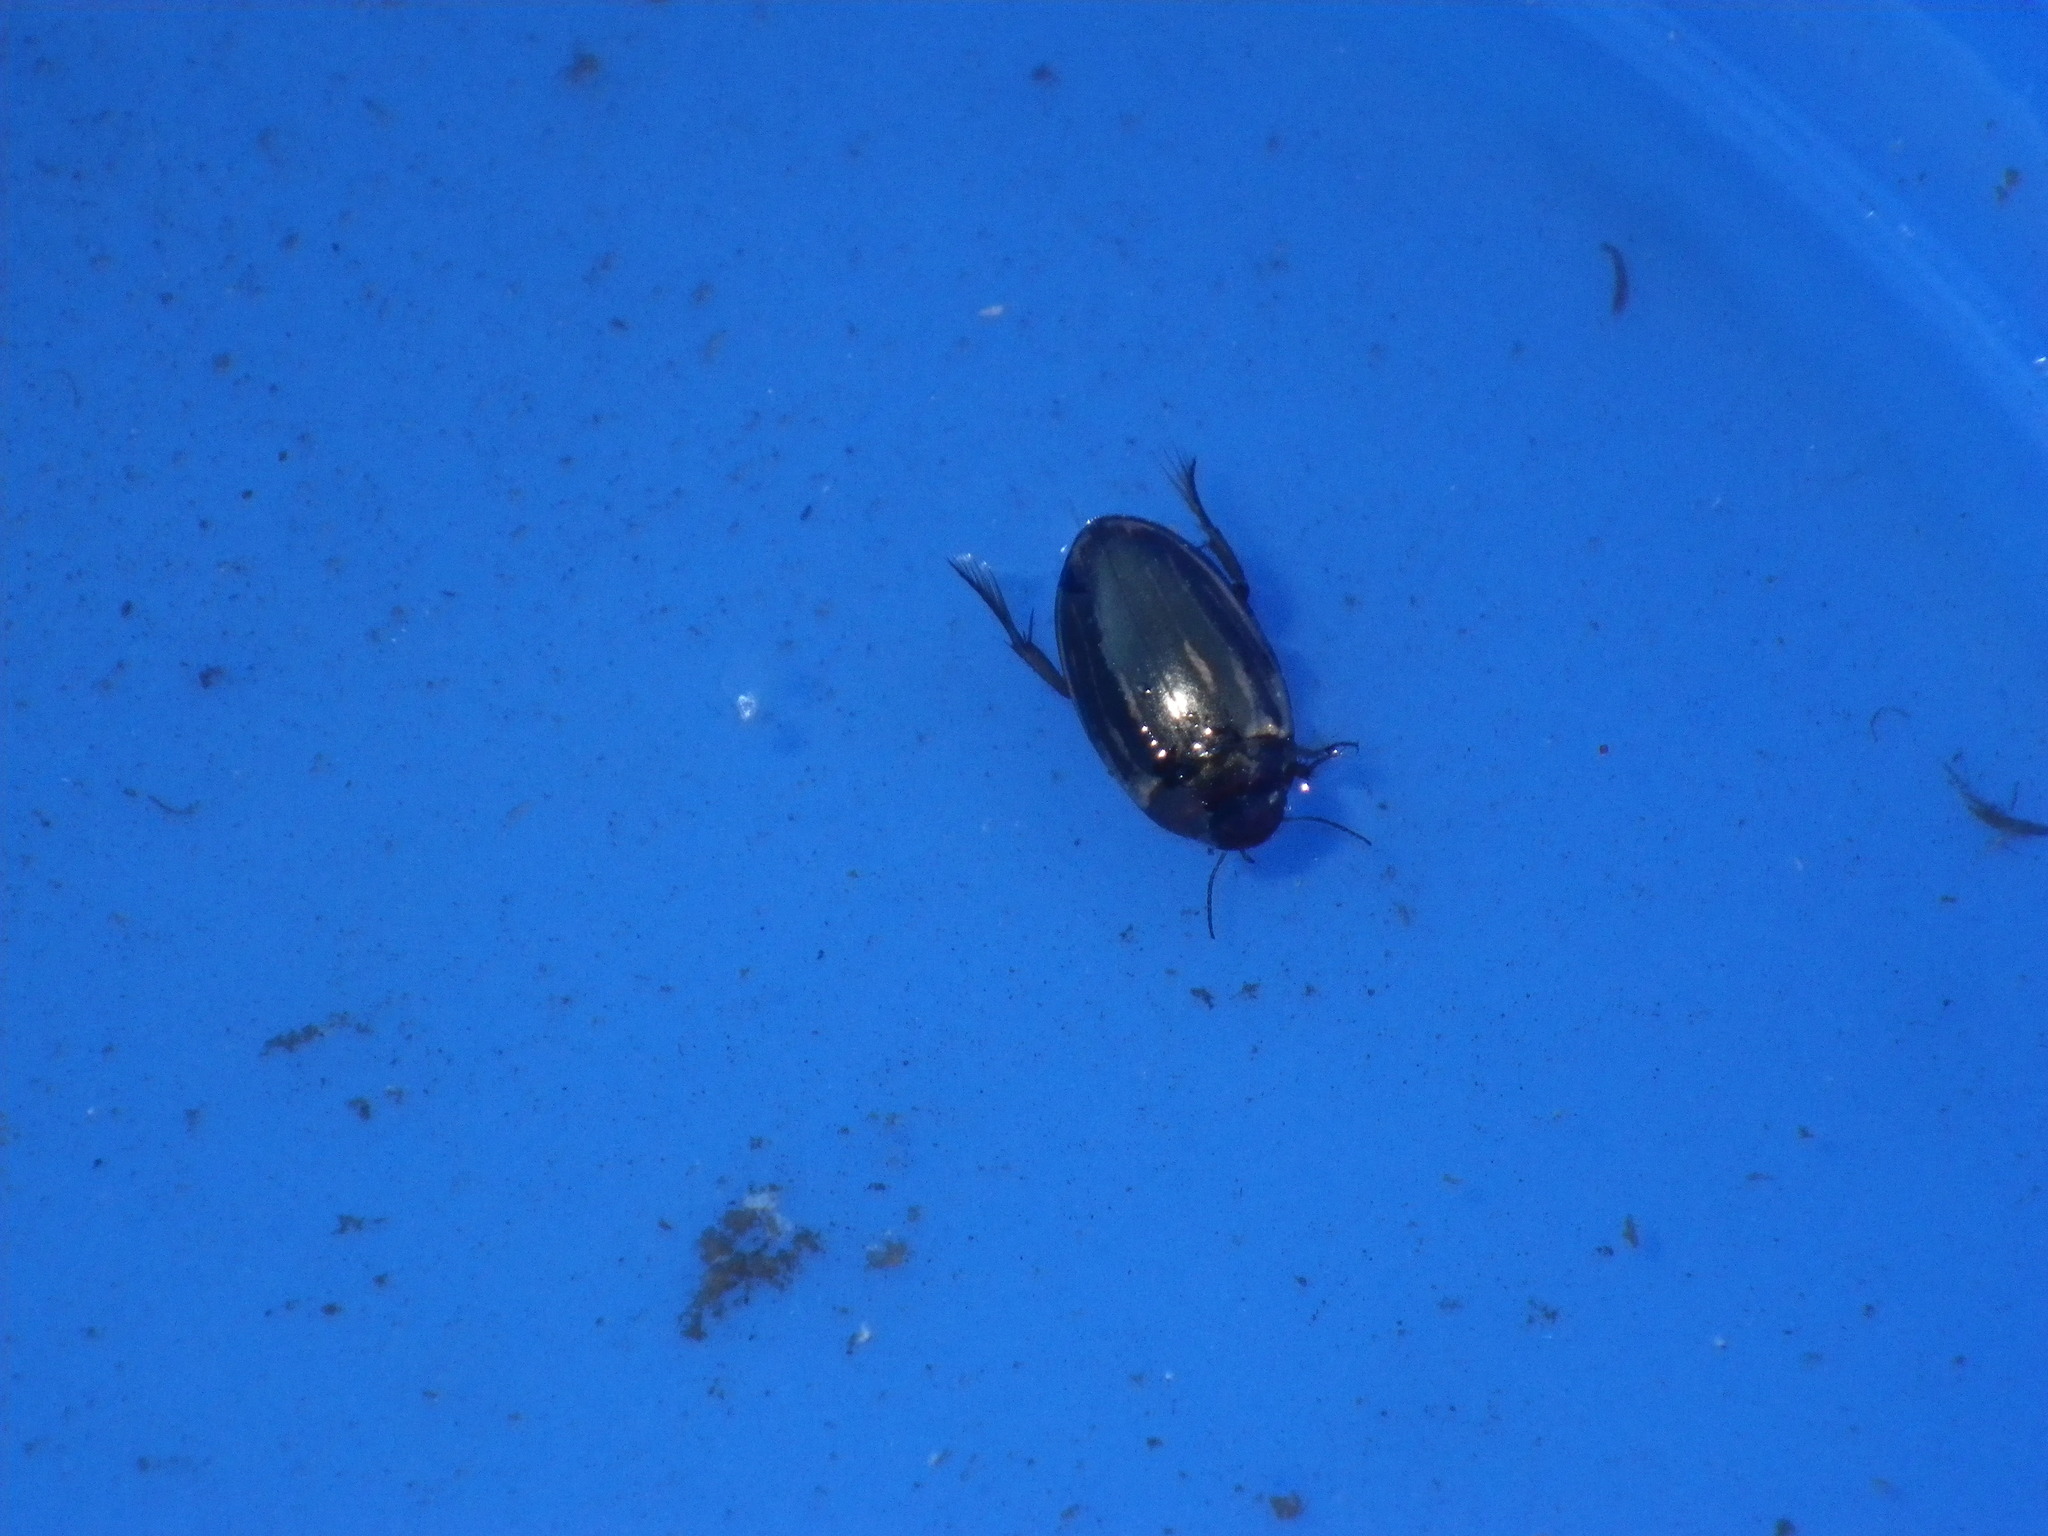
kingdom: Animalia
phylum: Arthropoda
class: Insecta
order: Coleoptera
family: Dytiscidae
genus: Agabus
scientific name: Agabus disintegratus
